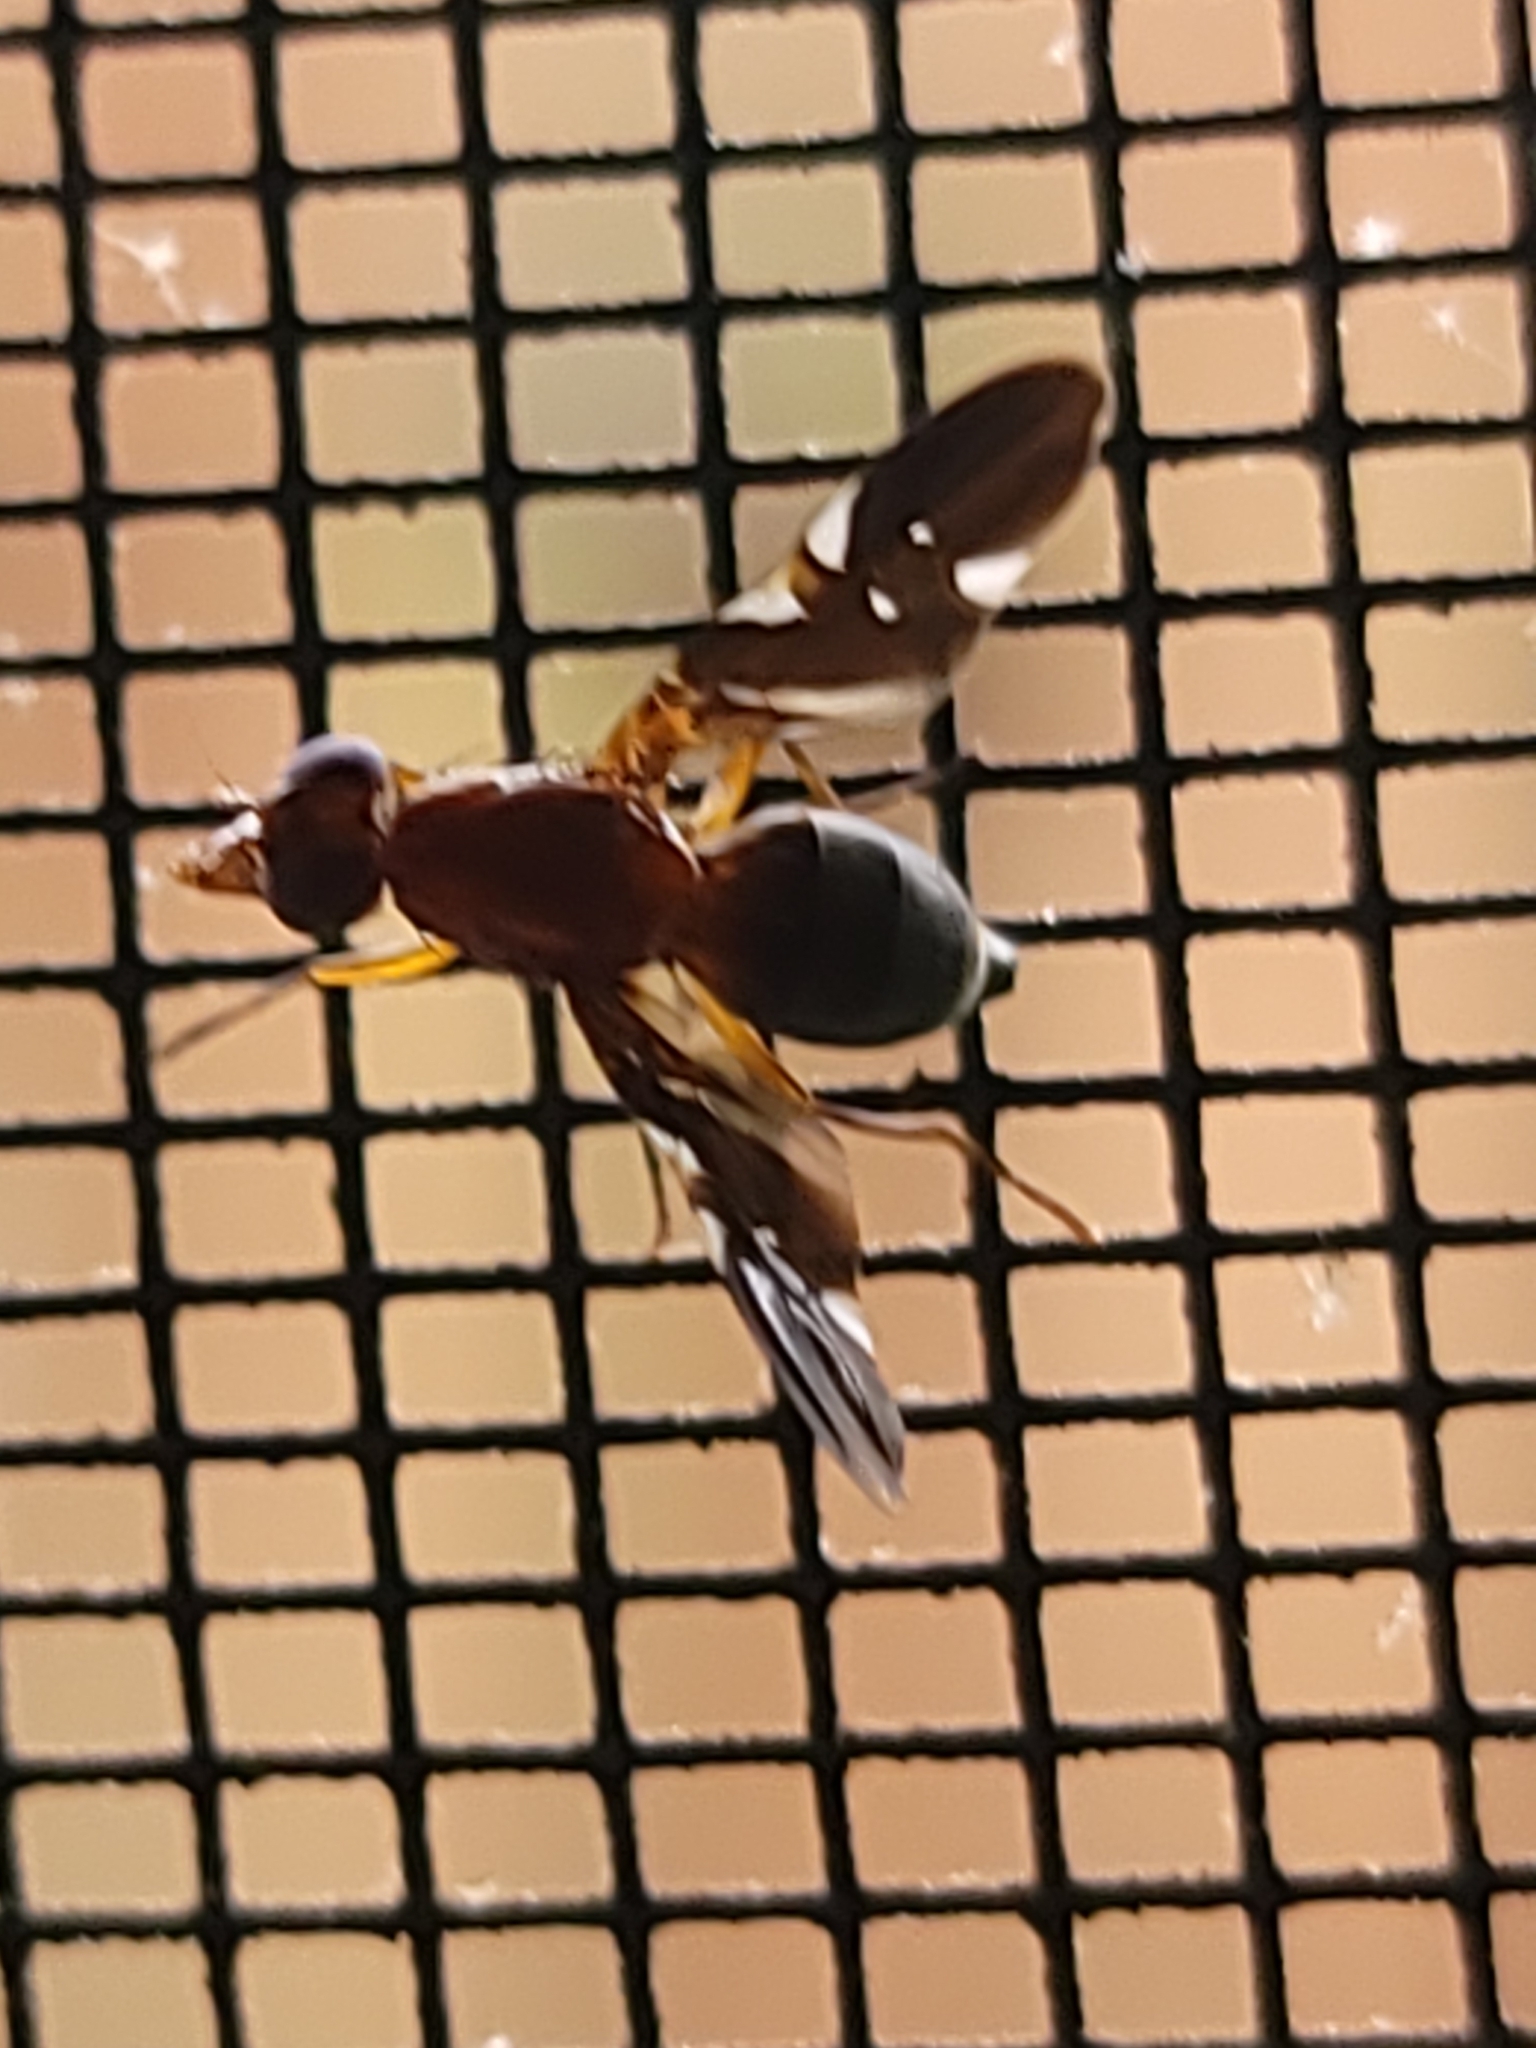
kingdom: Animalia
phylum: Arthropoda
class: Insecta
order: Diptera
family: Ulidiidae
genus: Delphinia
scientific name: Delphinia picta
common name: Common picture-winged fly
